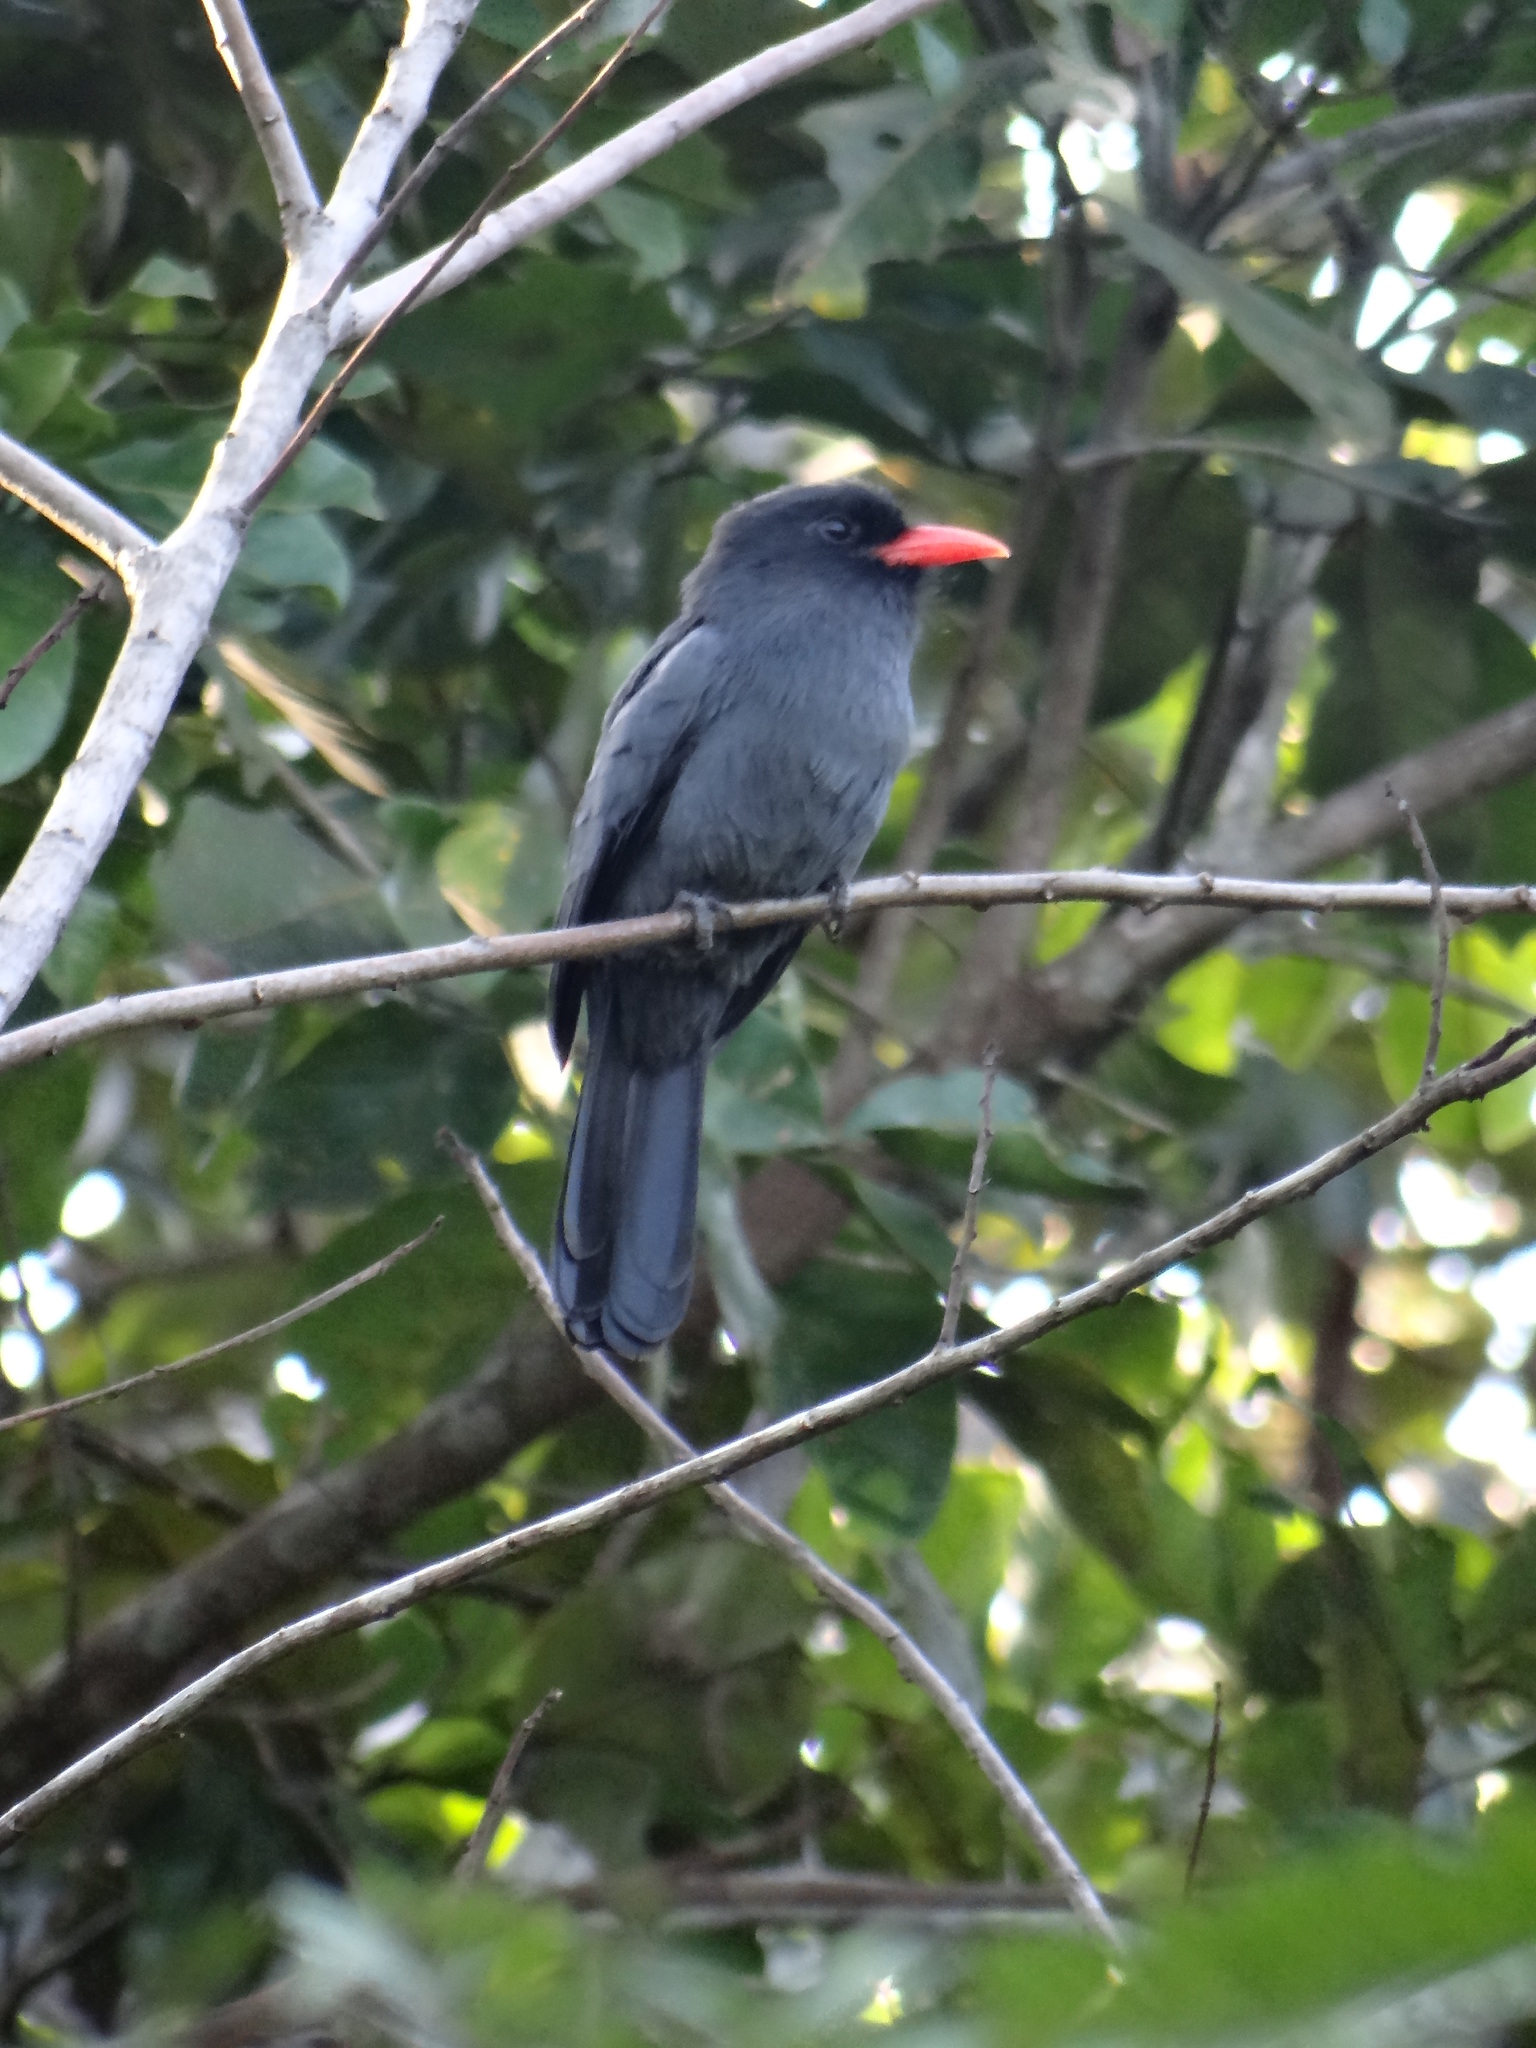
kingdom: Animalia
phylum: Chordata
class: Aves
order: Piciformes
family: Bucconidae
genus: Monasa
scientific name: Monasa nigrifrons
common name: Black-fronted nunbird
